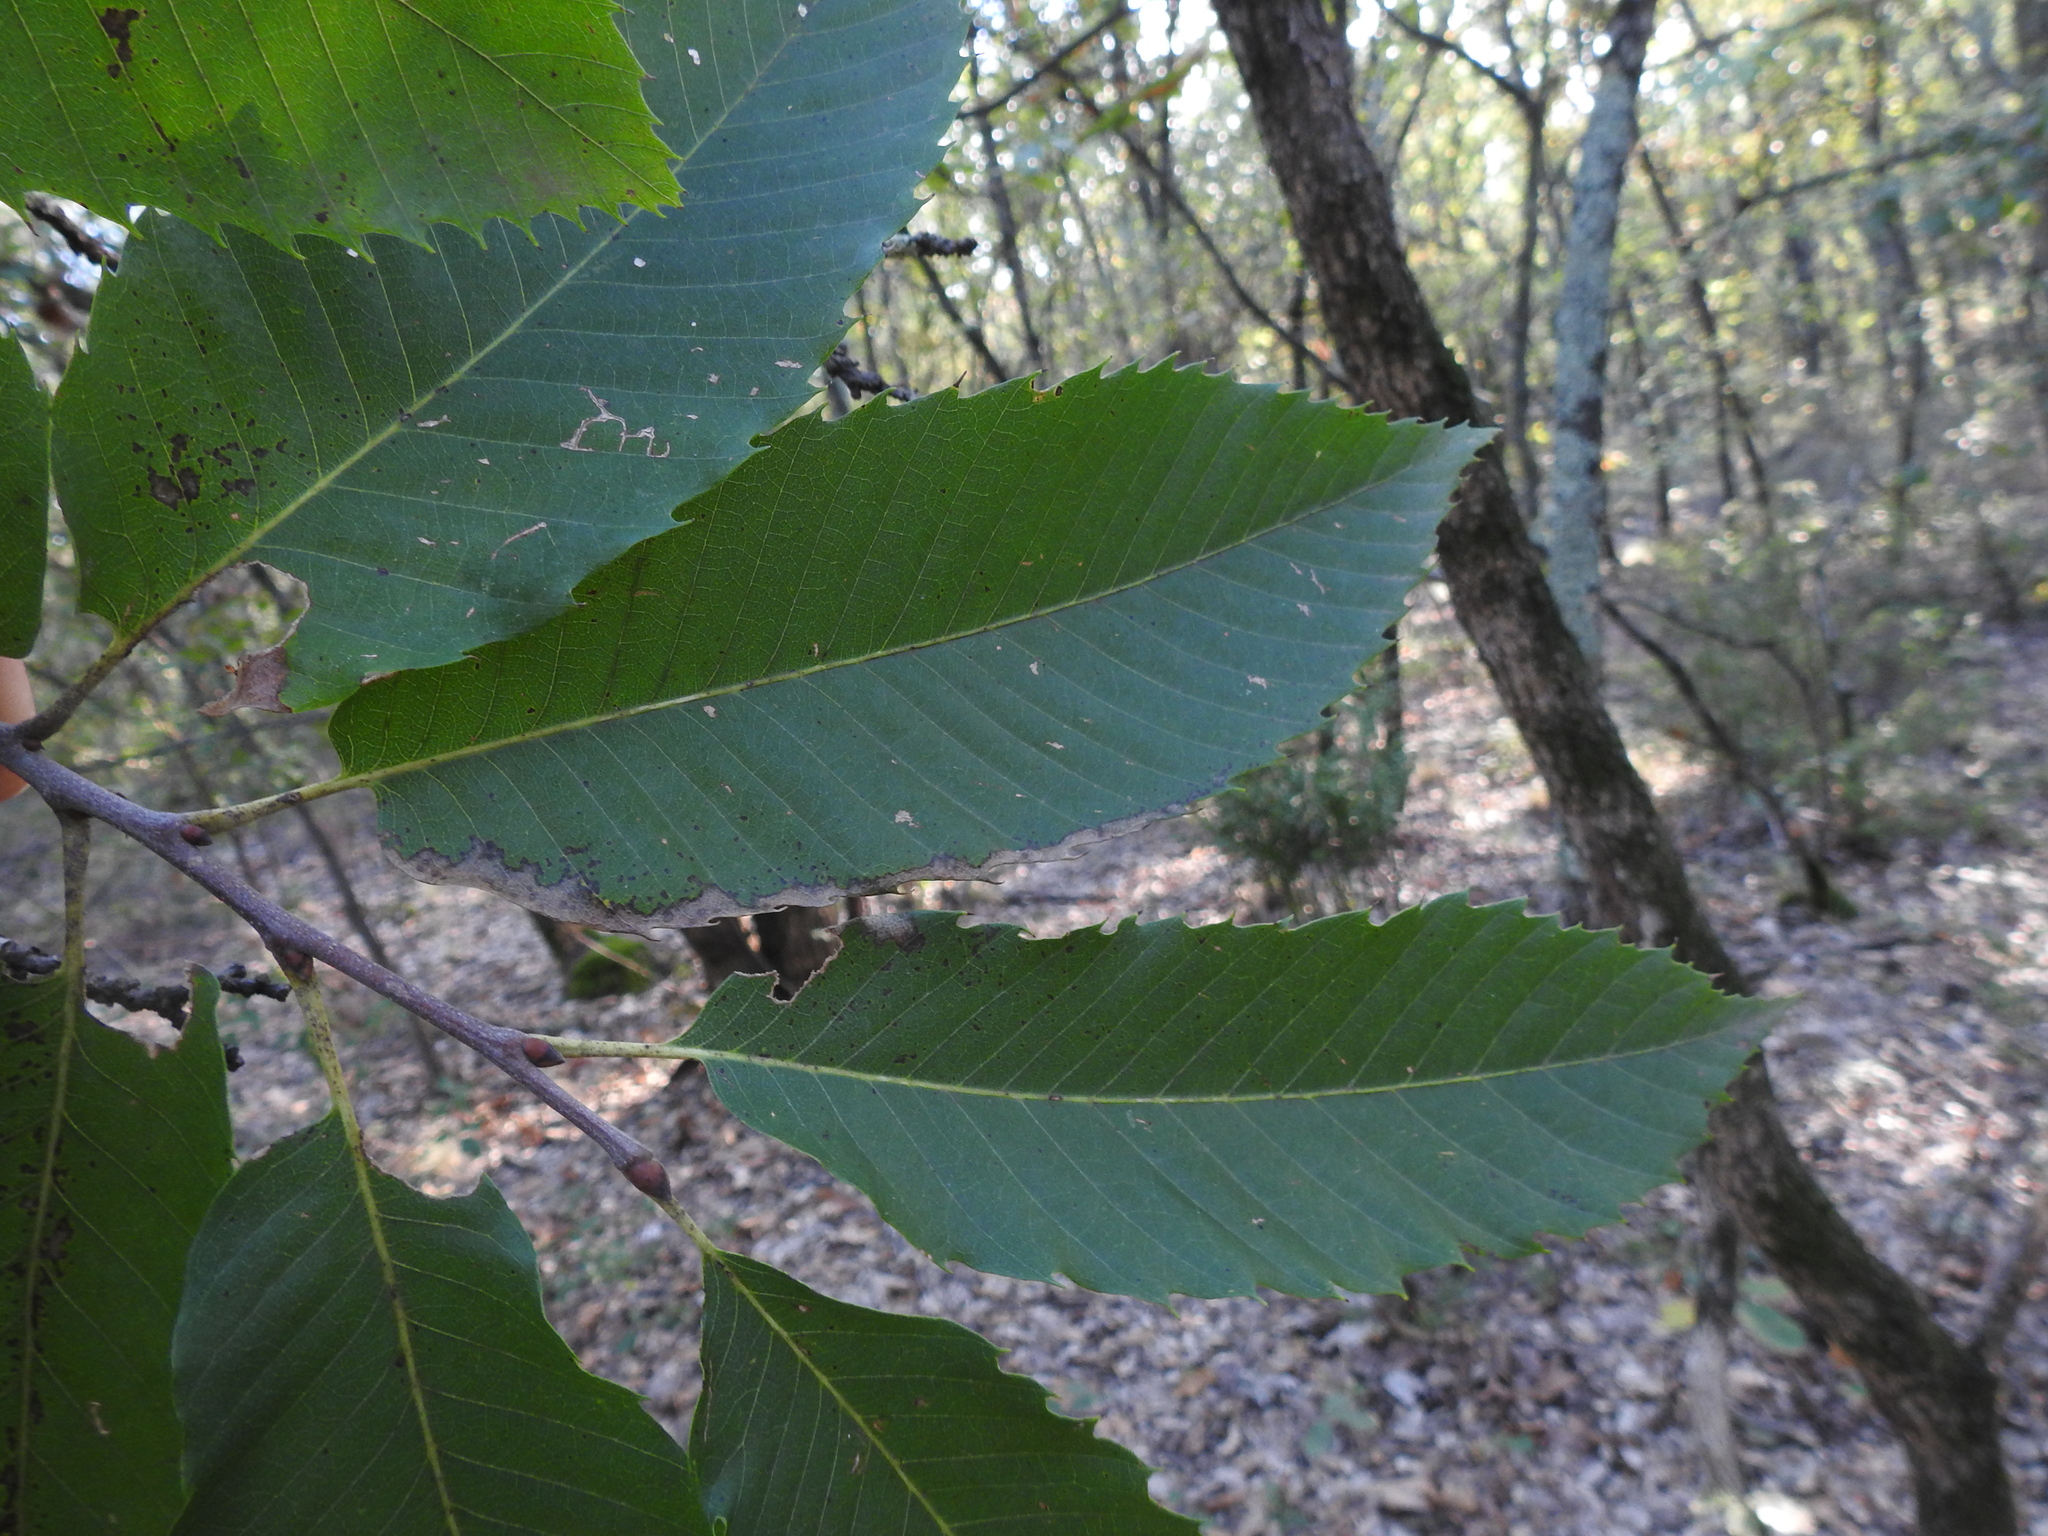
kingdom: Plantae
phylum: Tracheophyta
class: Magnoliopsida
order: Fagales
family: Fagaceae
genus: Castanea
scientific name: Castanea sativa
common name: Sweet chestnut
